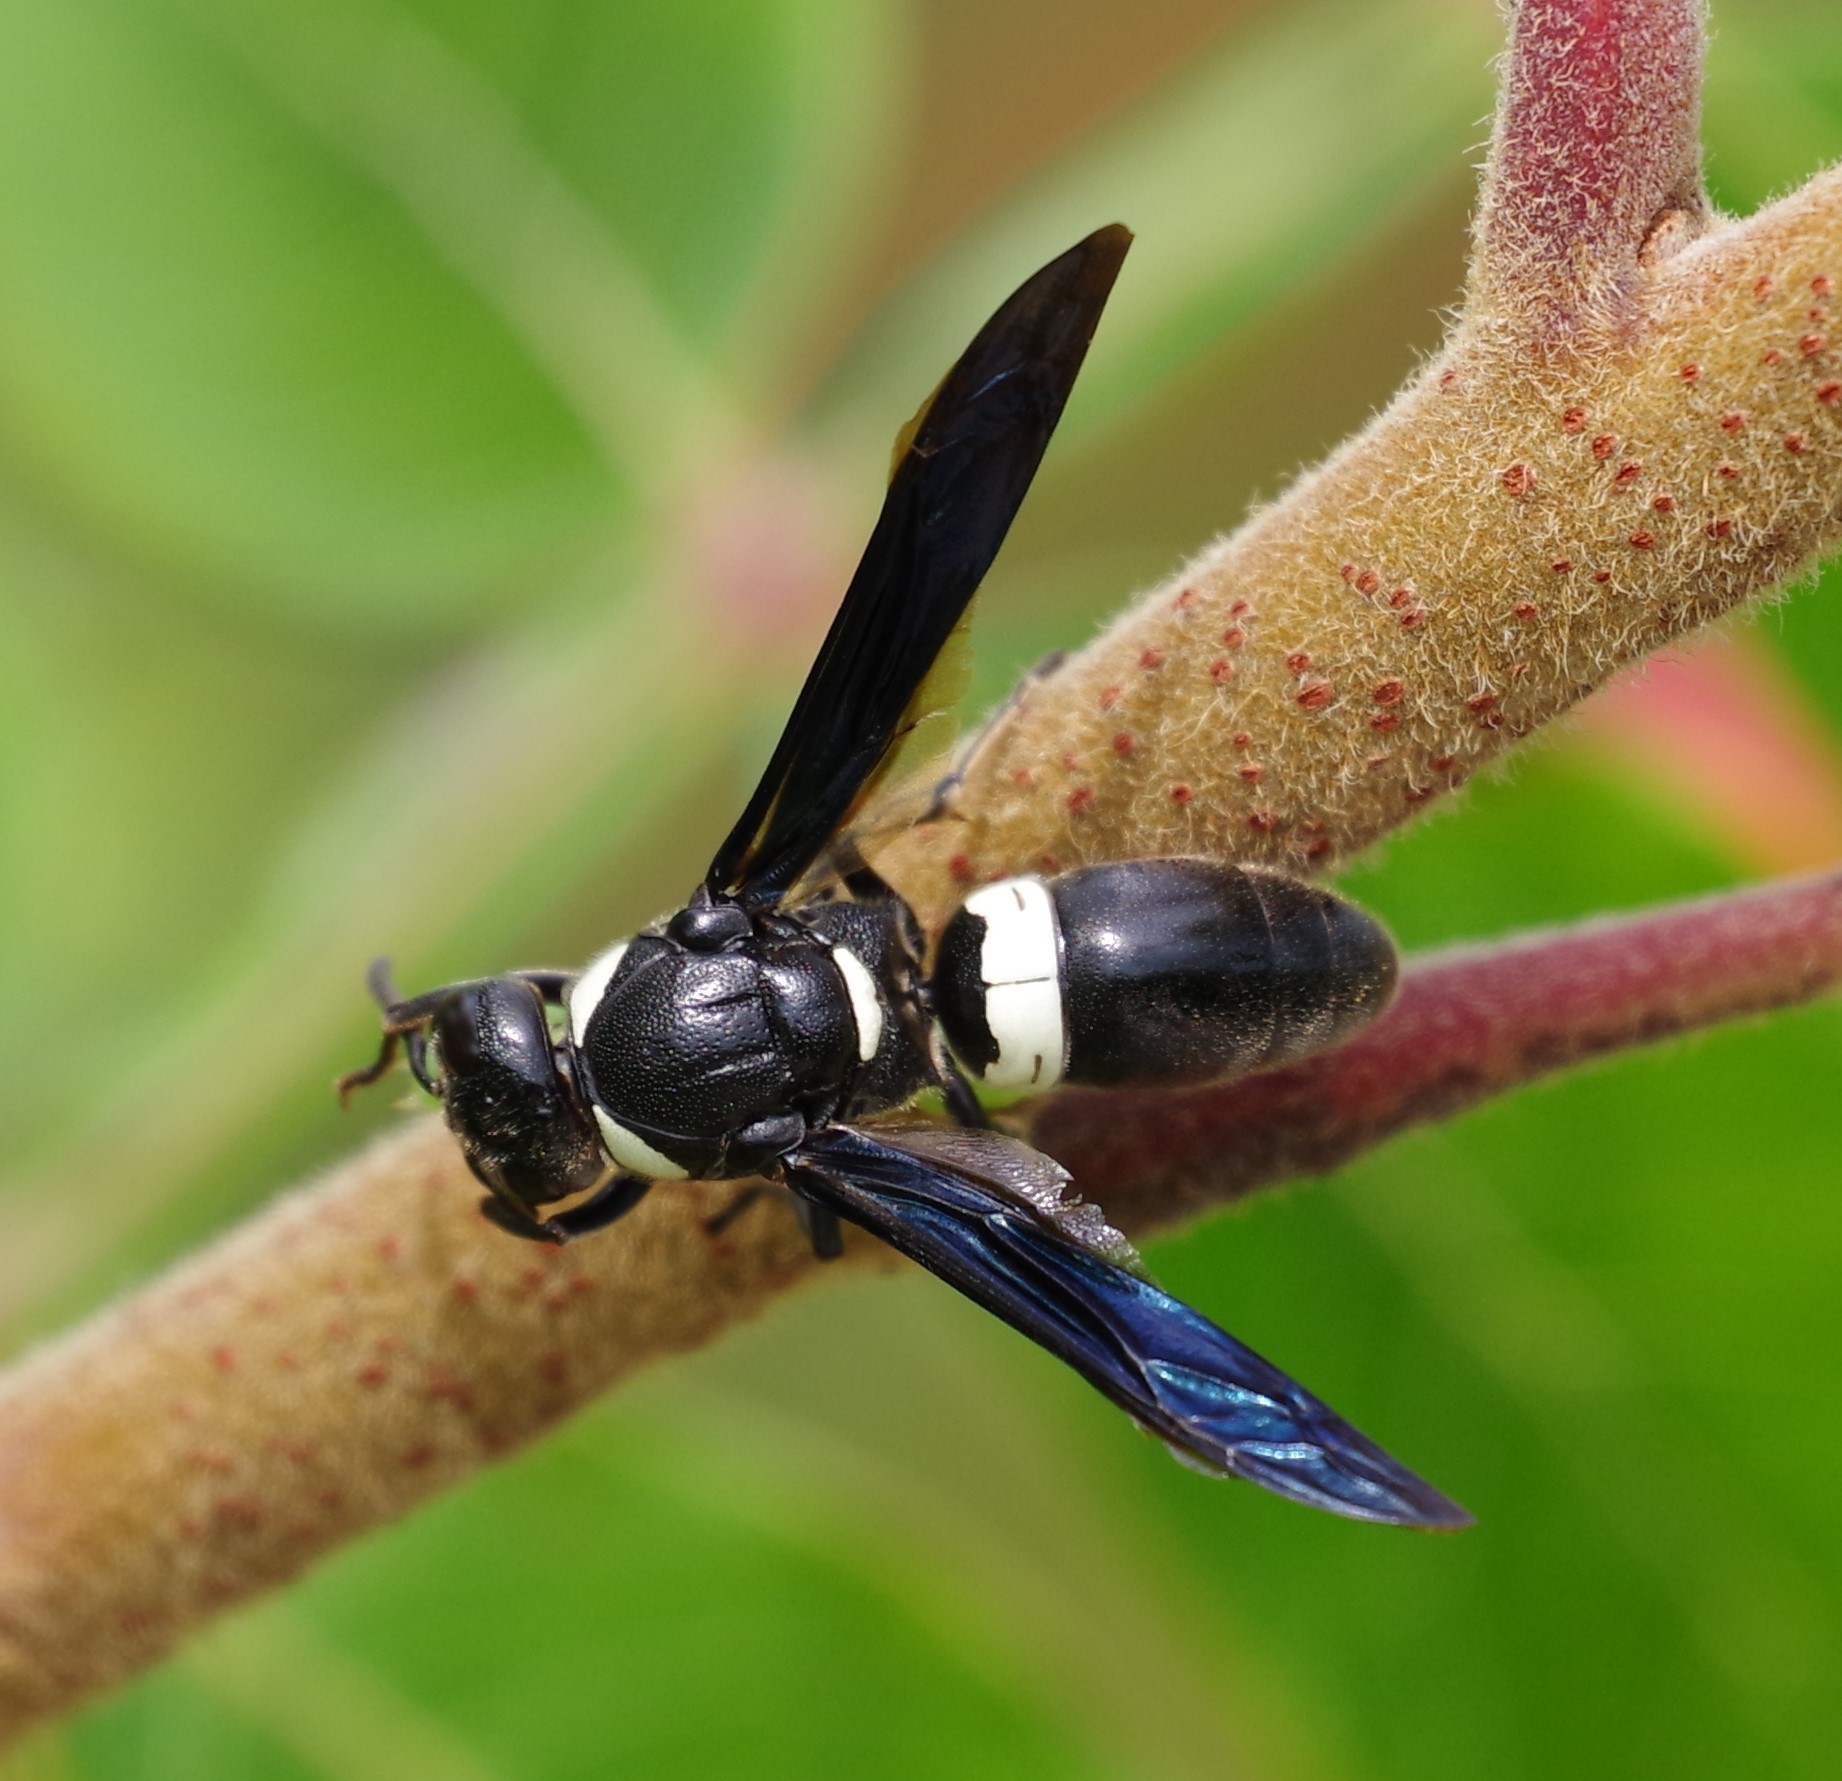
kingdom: Animalia
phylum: Arthropoda
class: Insecta
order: Hymenoptera
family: Eumenidae
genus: Monobia
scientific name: Monobia quadridens
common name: Four-toothed mason wasp
